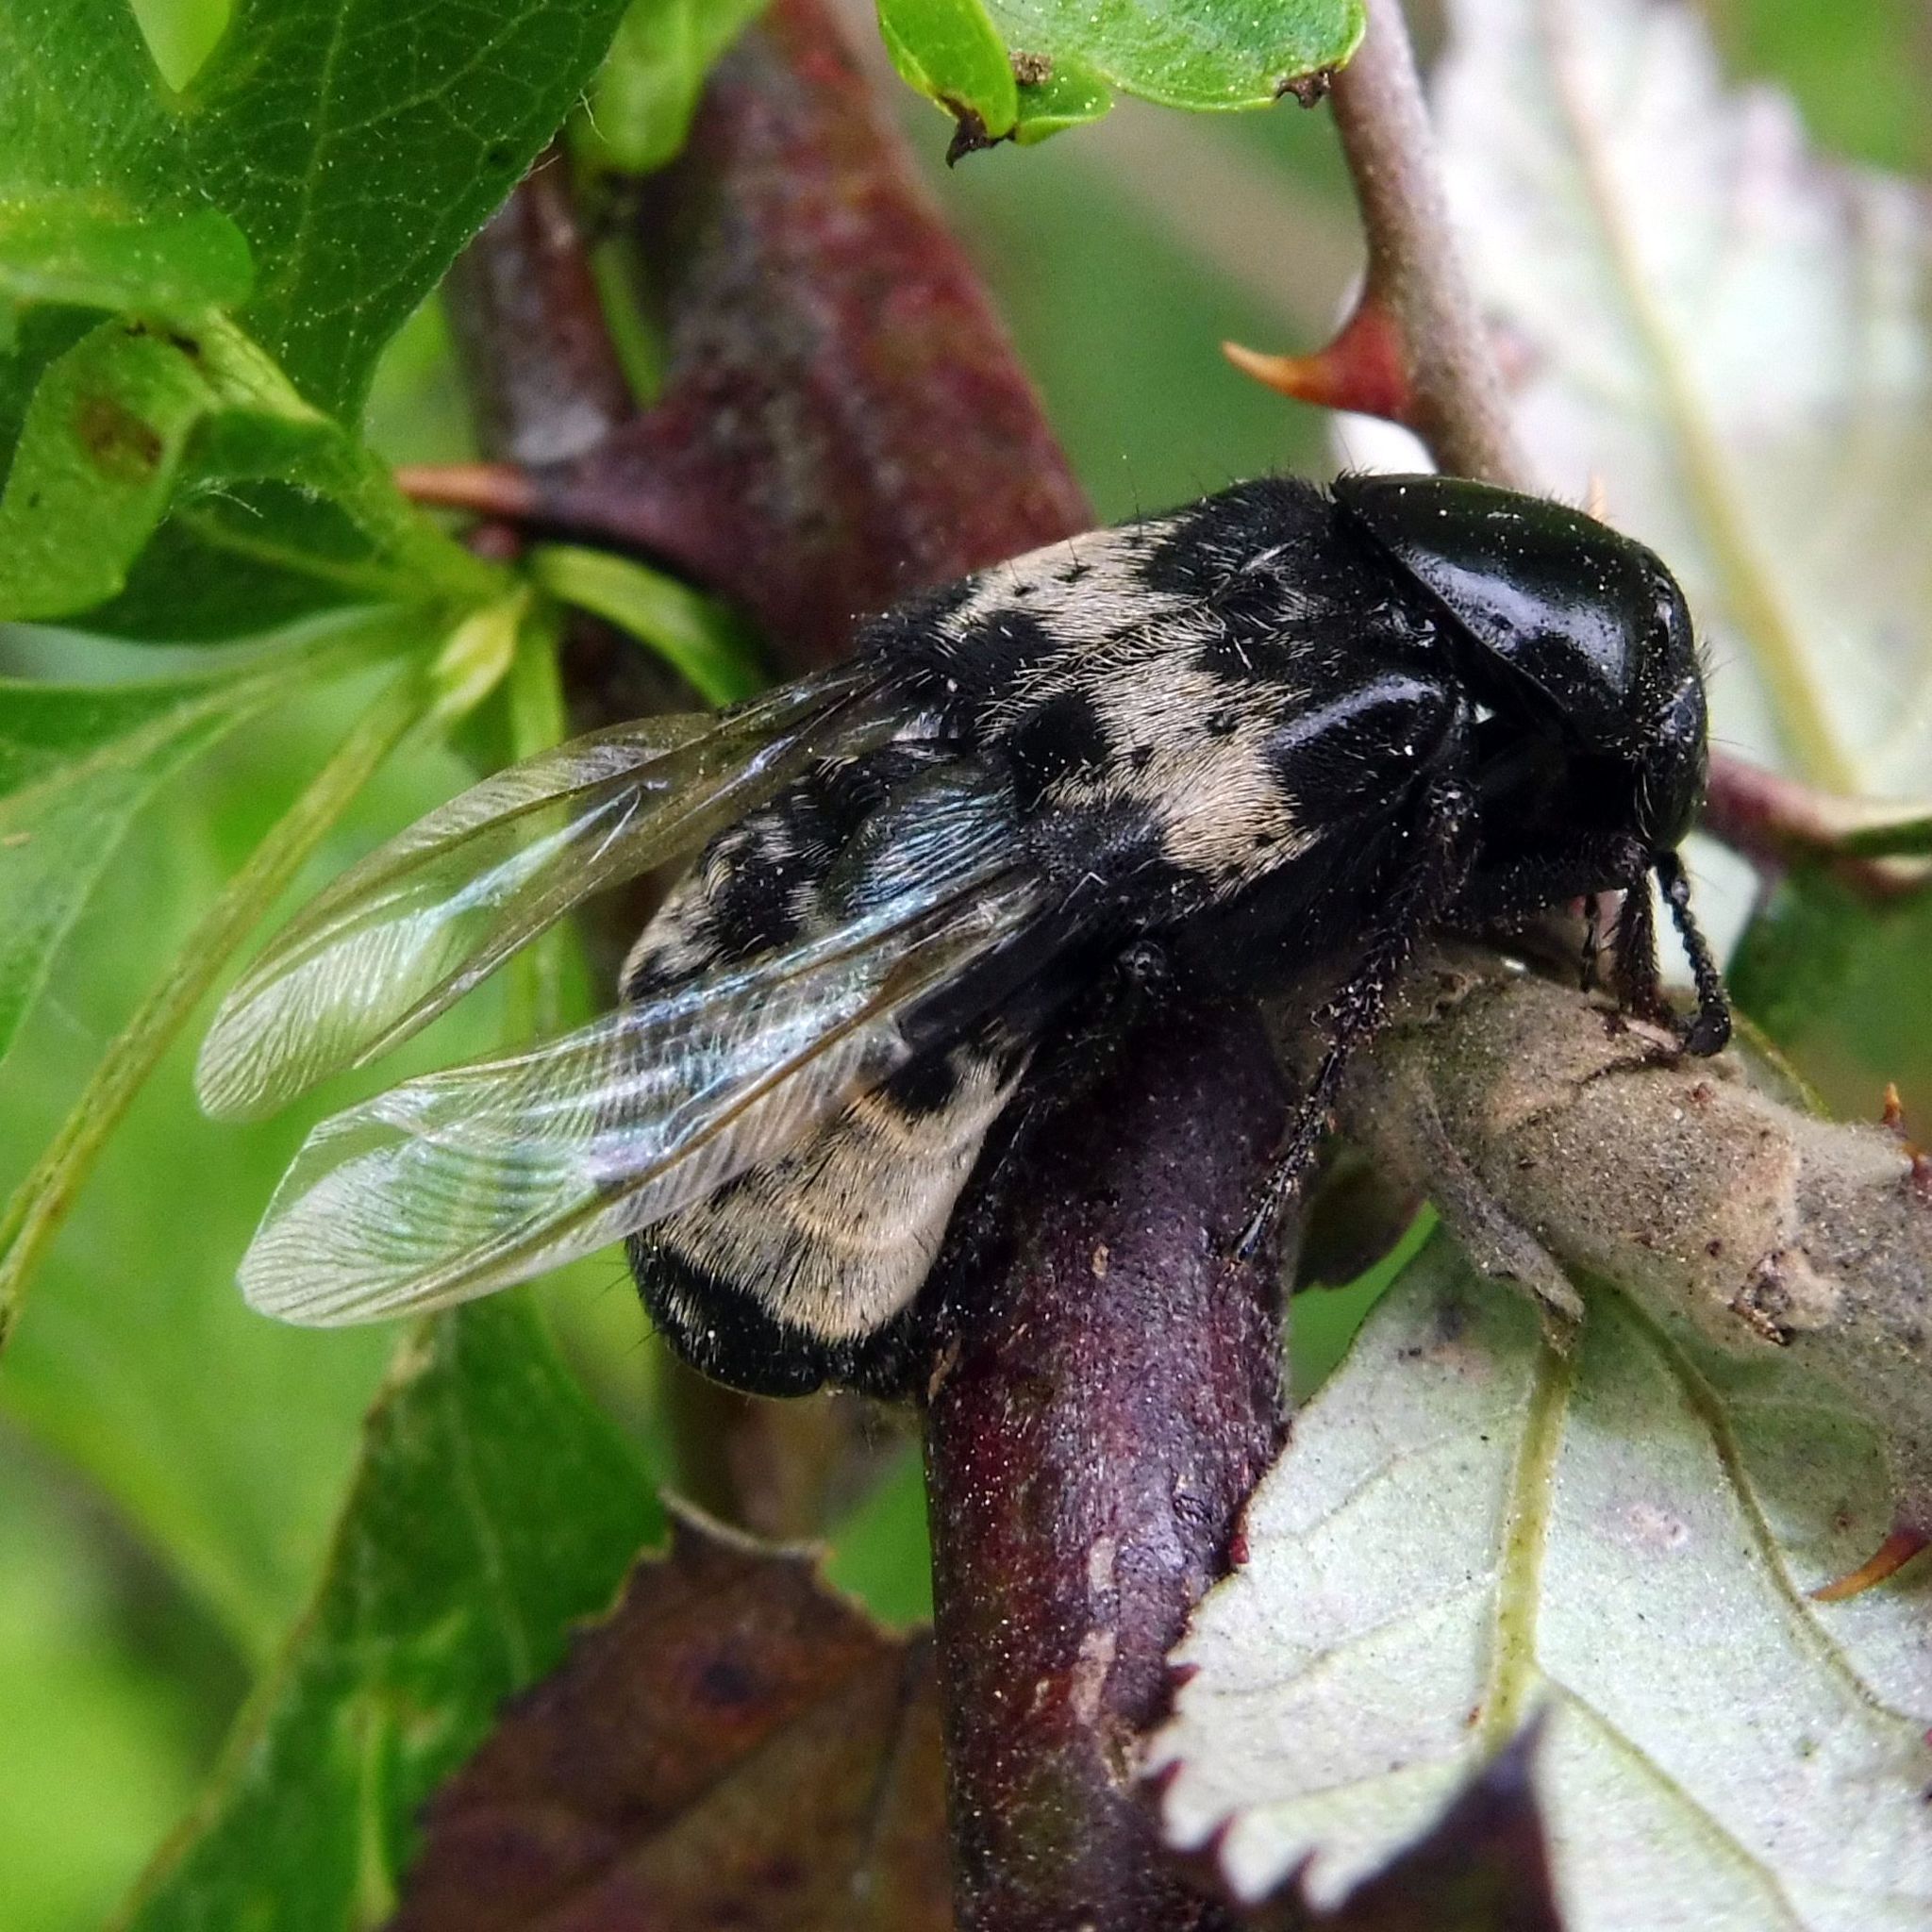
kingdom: Animalia
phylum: Arthropoda
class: Insecta
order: Coleoptera
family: Staphylinidae
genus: Creophilus
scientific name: Creophilus maxillosus
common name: Hairy rove beetle
